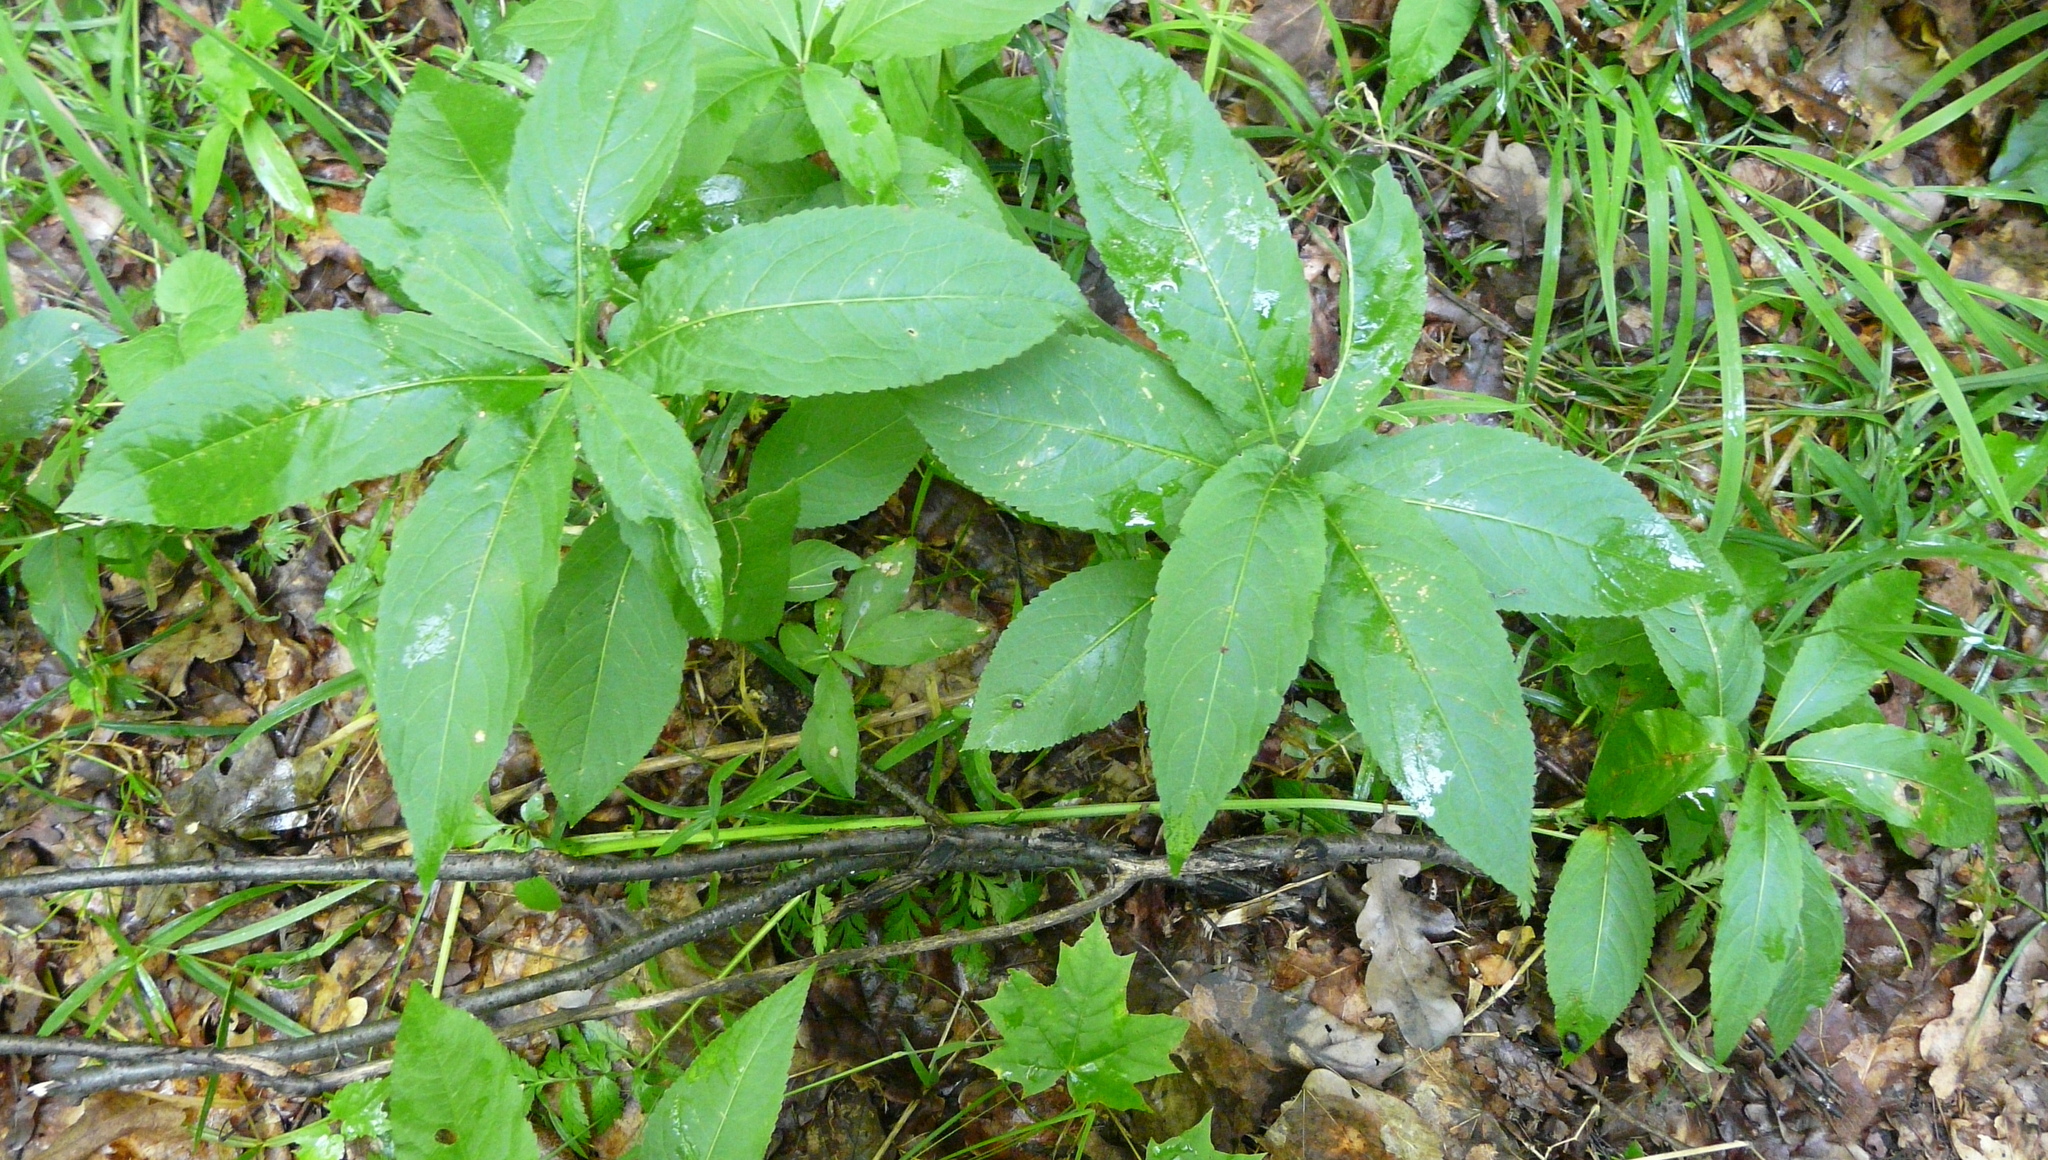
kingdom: Plantae
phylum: Tracheophyta
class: Magnoliopsida
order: Malpighiales
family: Euphorbiaceae
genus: Mercurialis
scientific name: Mercurialis perennis
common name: Dog mercury
